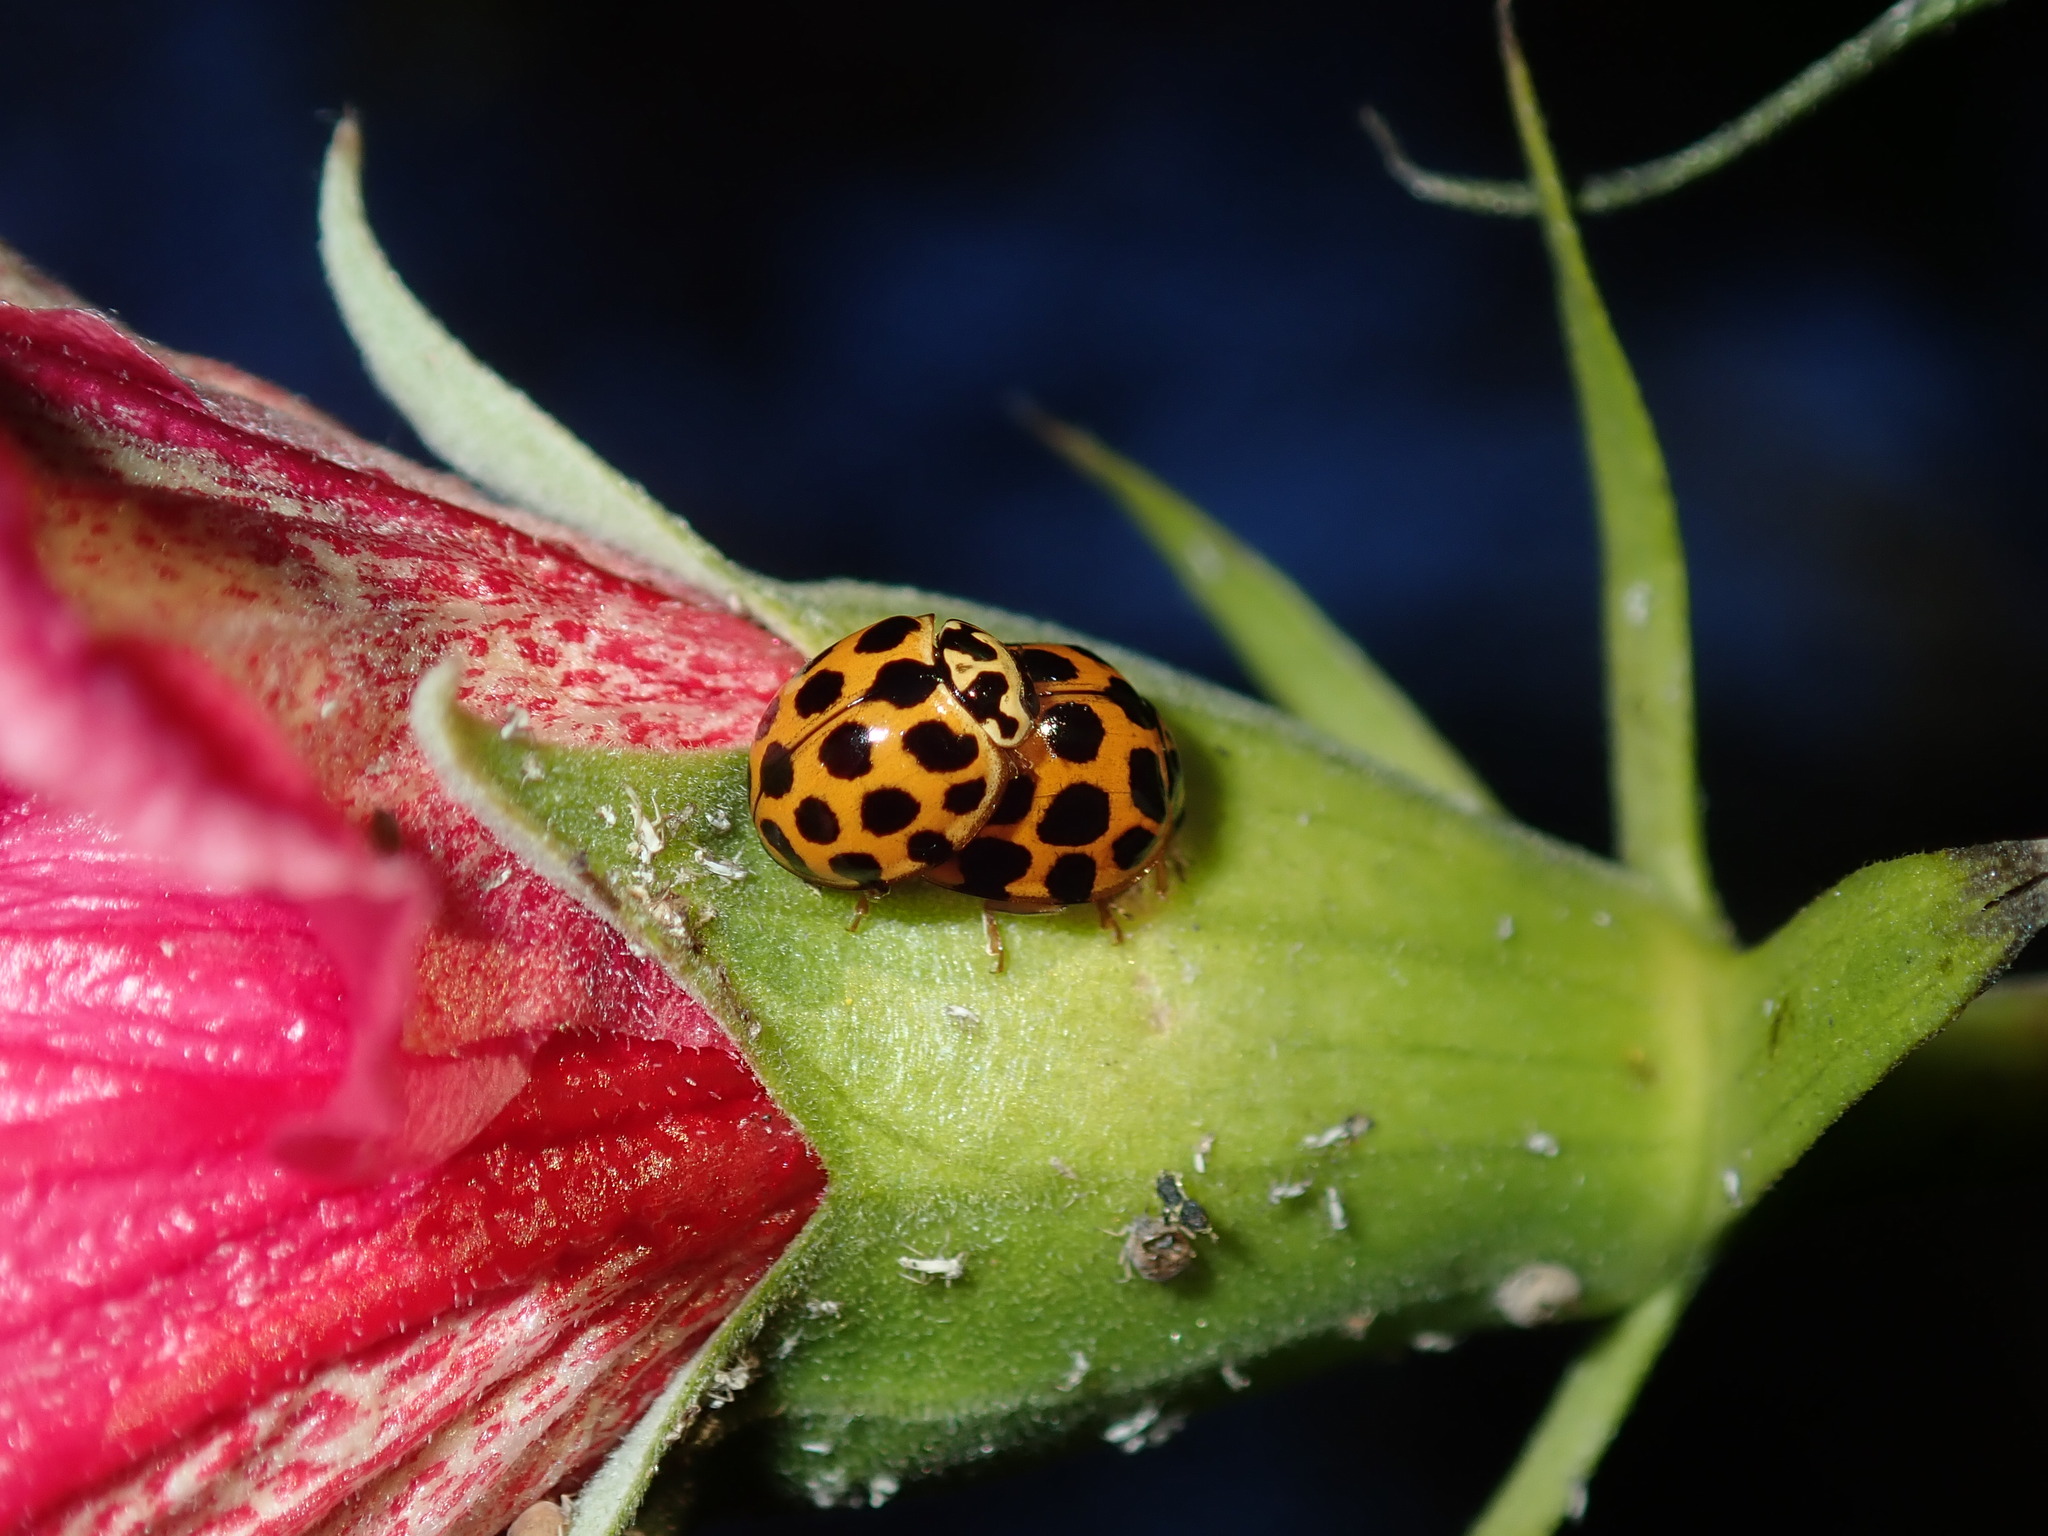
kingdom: Animalia
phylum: Arthropoda
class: Insecta
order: Coleoptera
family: Coccinellidae
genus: Harmonia
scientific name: Harmonia conformis
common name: Common spotted ladybird beetle
